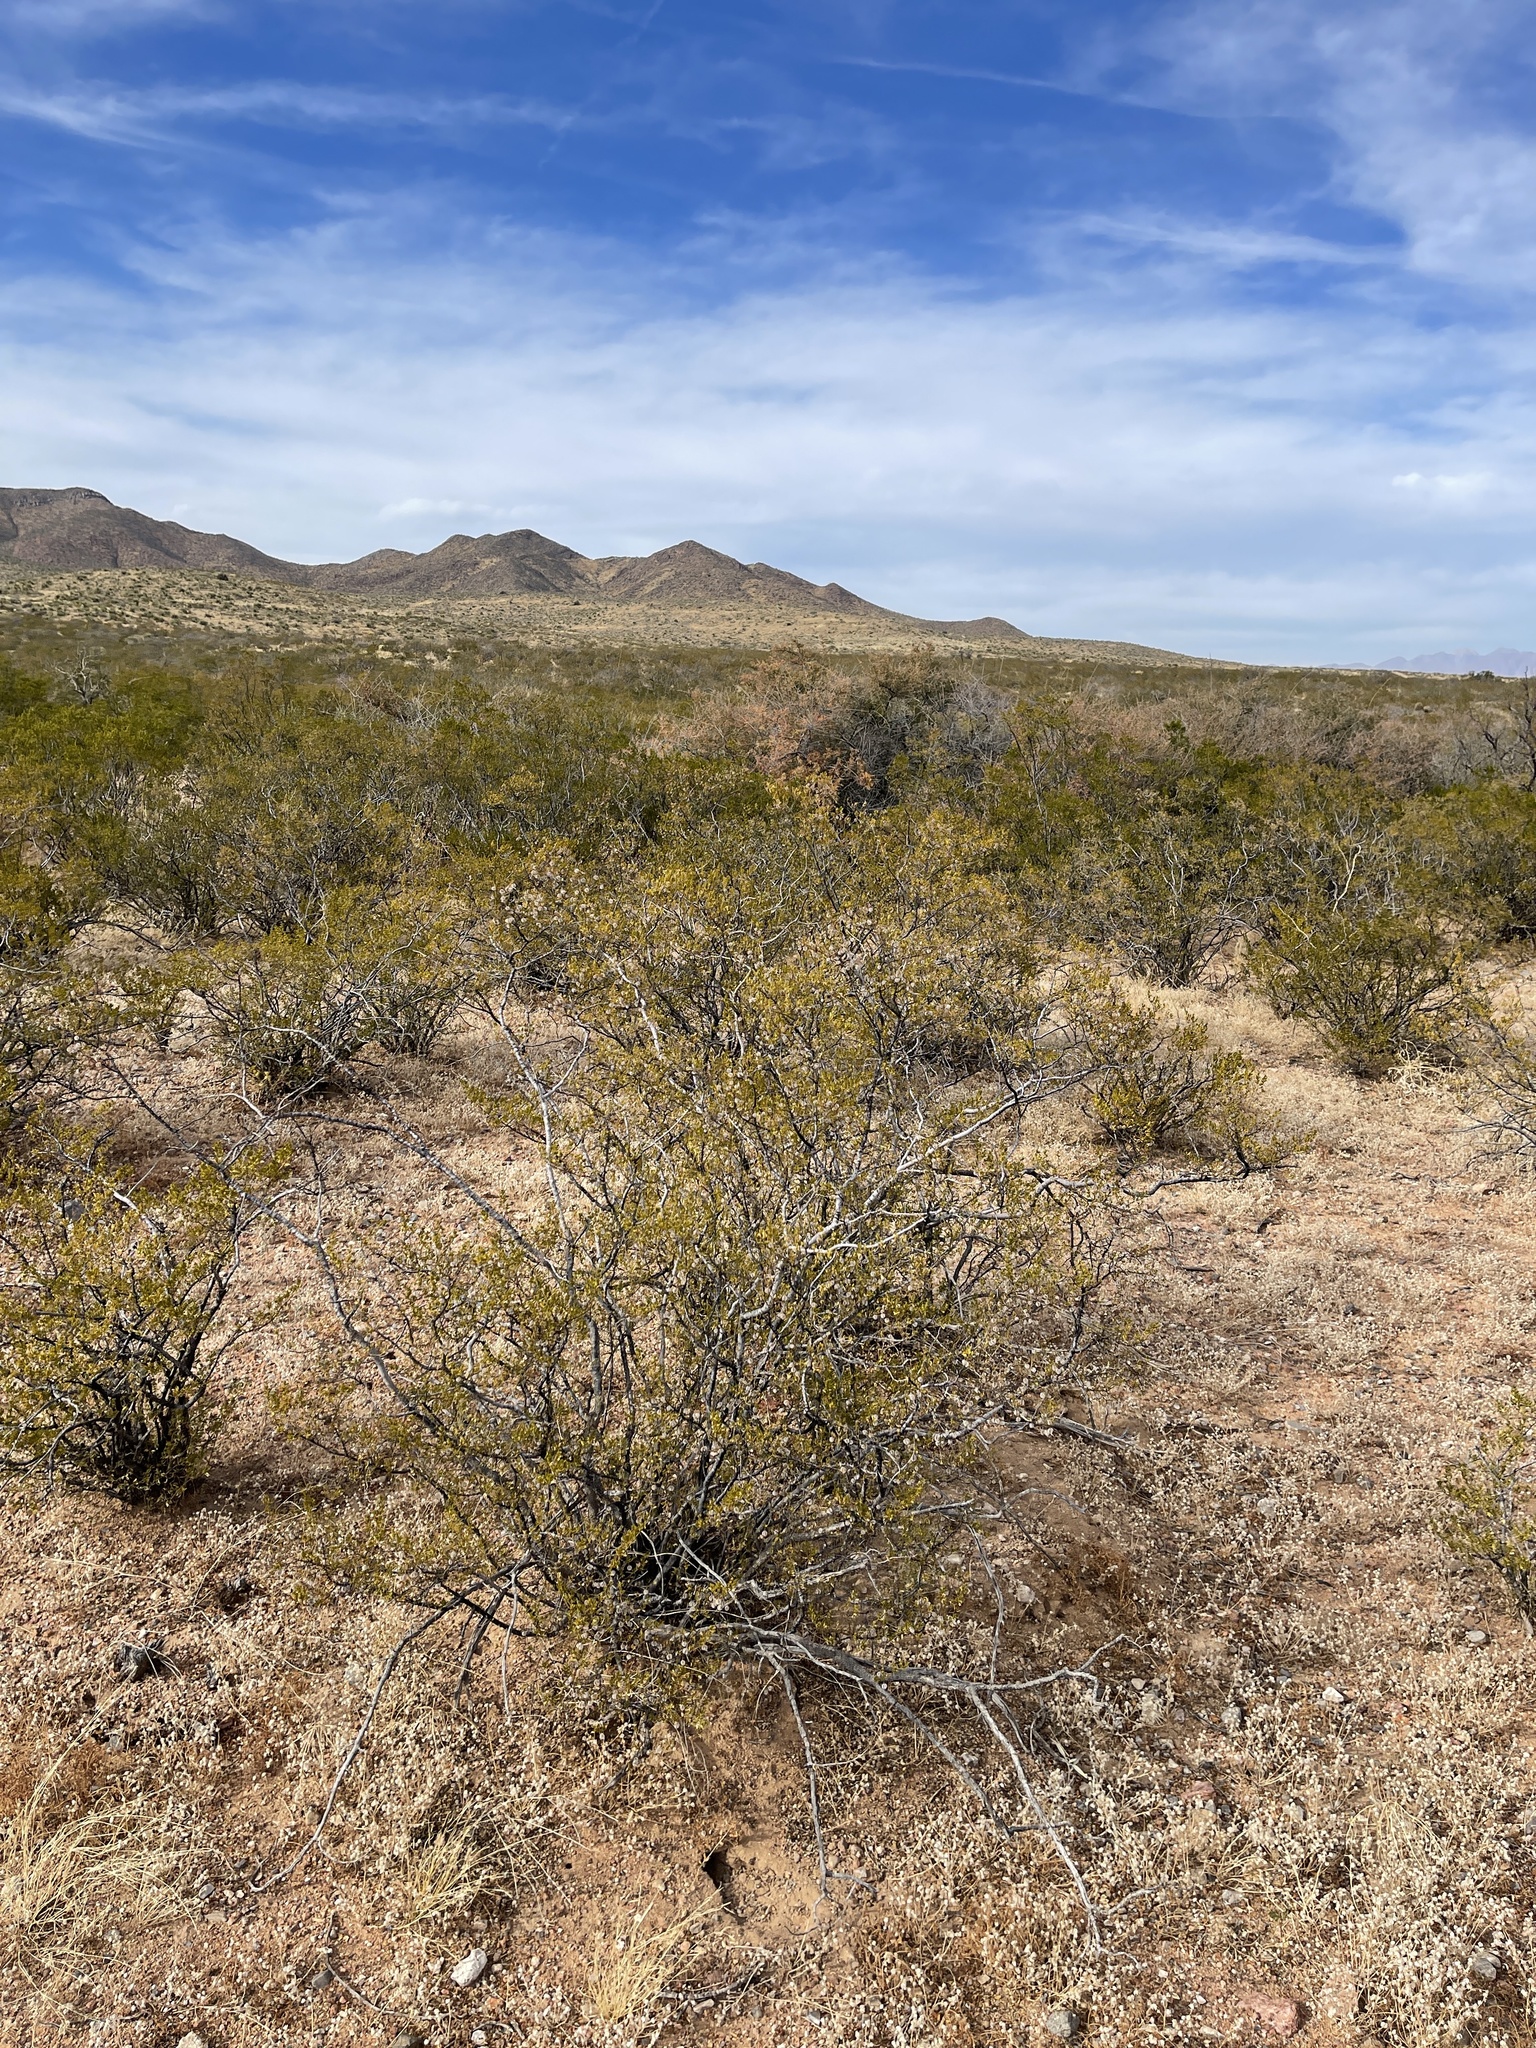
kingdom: Plantae
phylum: Tracheophyta
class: Magnoliopsida
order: Zygophyllales
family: Zygophyllaceae
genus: Larrea
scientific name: Larrea tridentata
